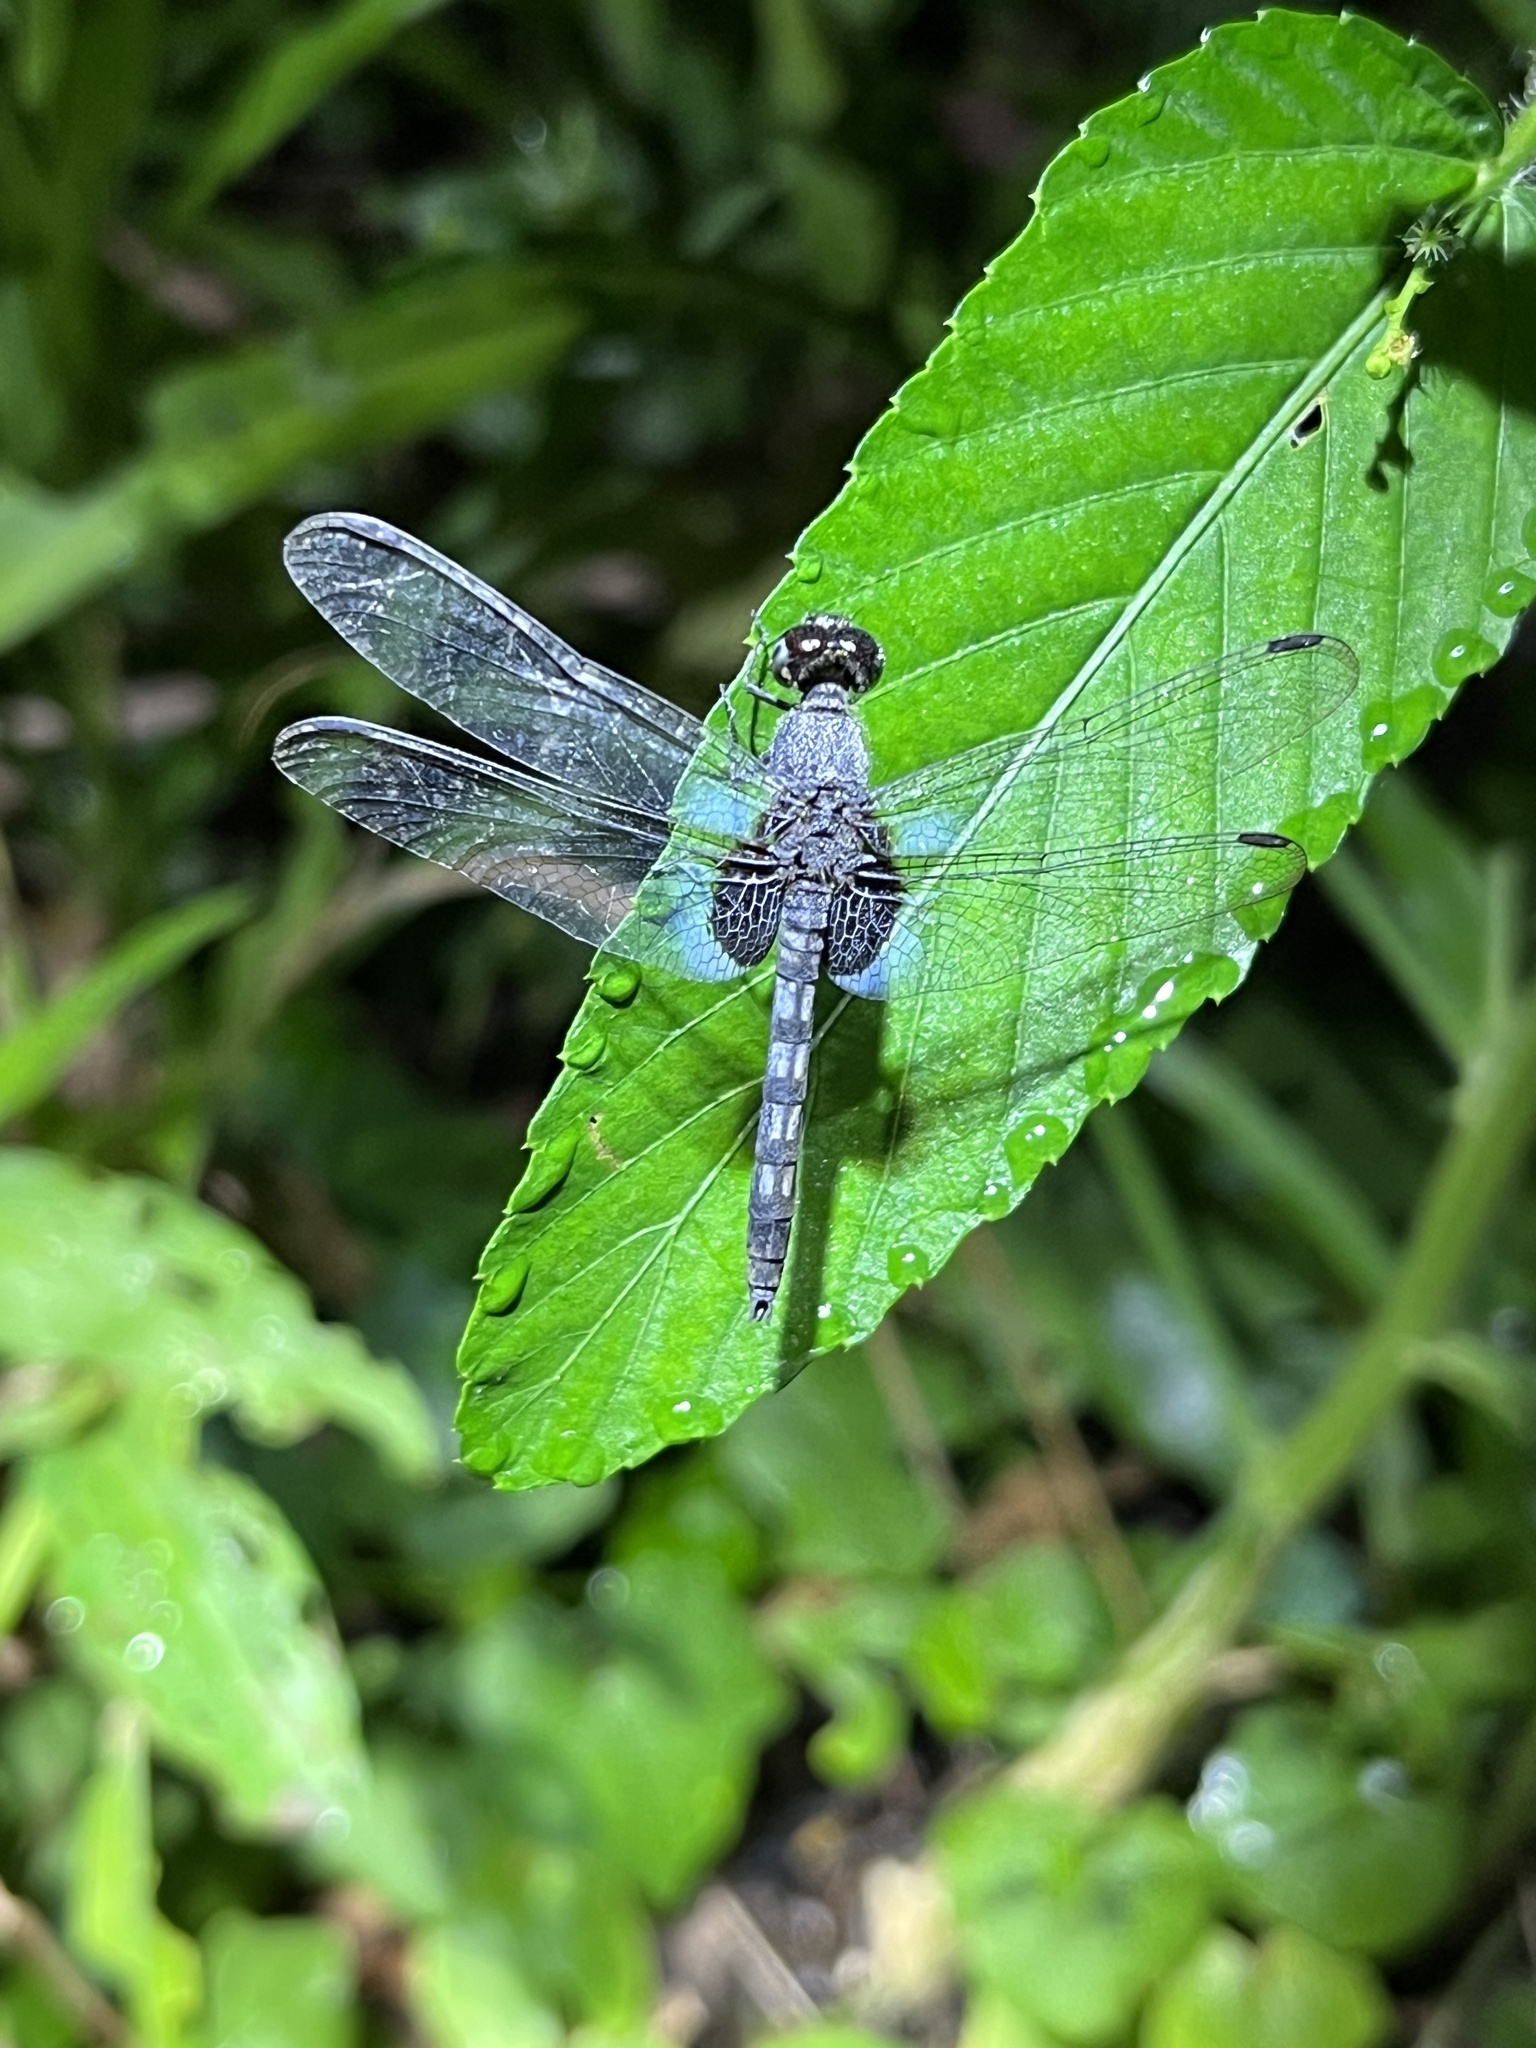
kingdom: Animalia
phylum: Arthropoda
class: Insecta
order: Odonata
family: Libellulidae
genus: Erythrodiplax
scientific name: Erythrodiplax kimminsi
